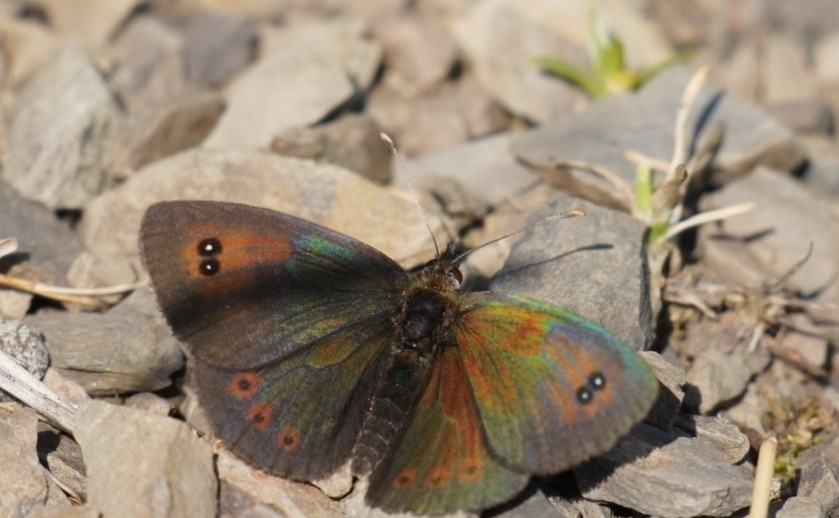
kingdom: Animalia
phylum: Arthropoda
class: Insecta
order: Lepidoptera
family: Nymphalidae
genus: Erebia
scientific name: Erebia cassioides
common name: Common brassy ringlet
